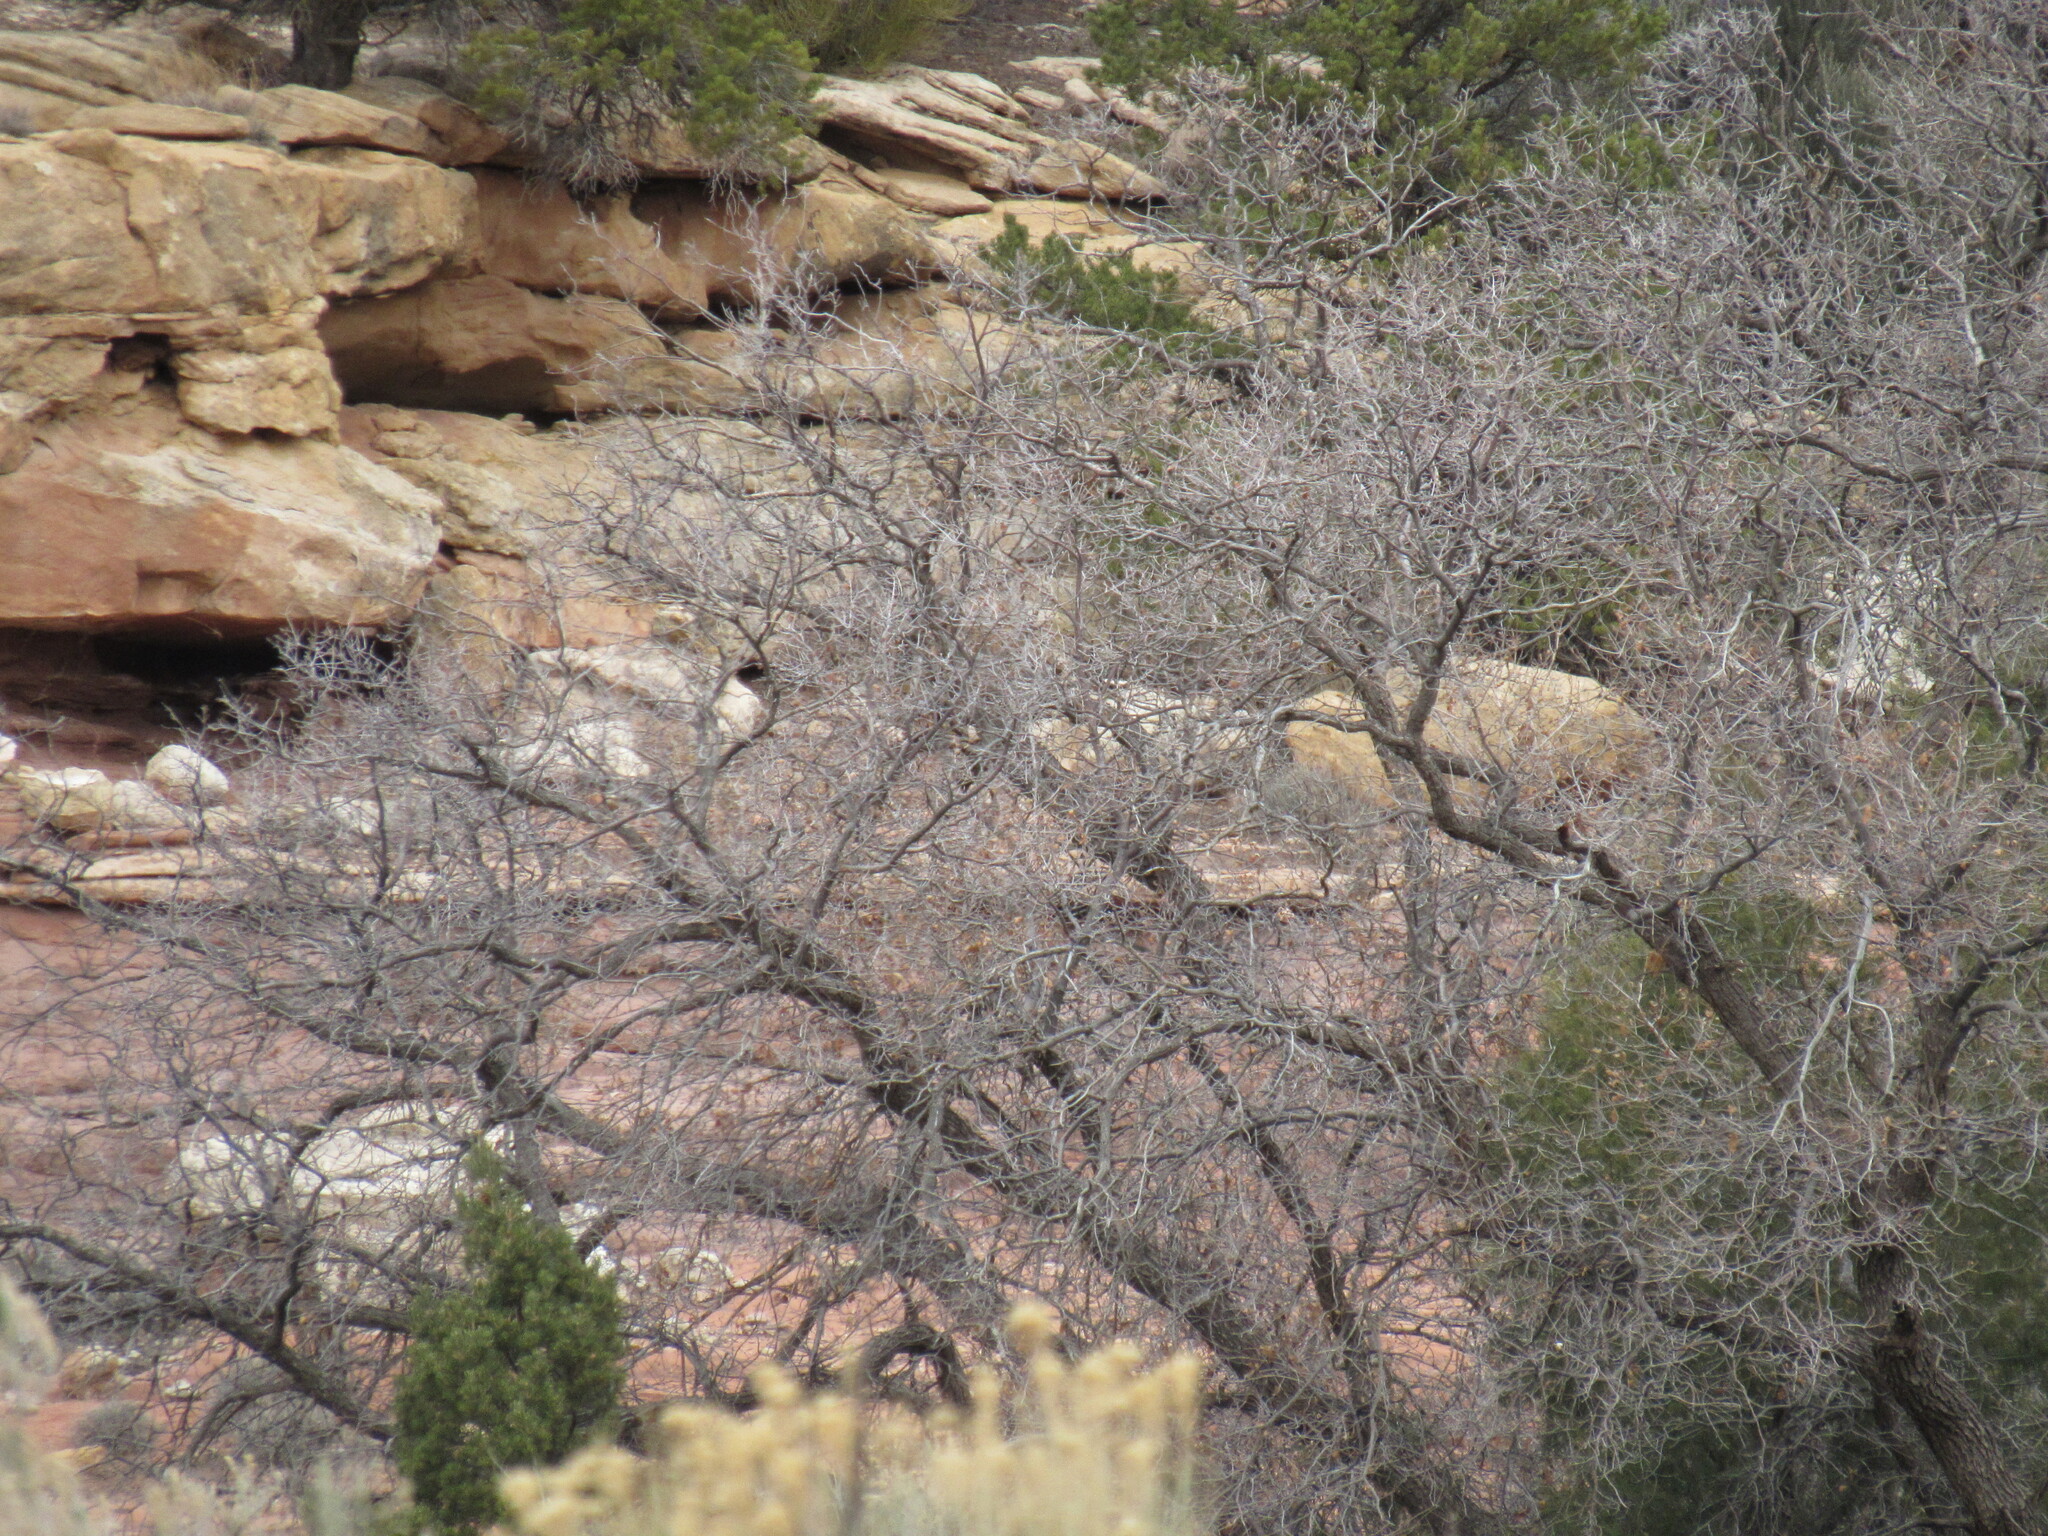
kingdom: Plantae
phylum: Tracheophyta
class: Magnoliopsida
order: Fagales
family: Fagaceae
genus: Quercus
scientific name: Quercus gambelii
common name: Gambel oak
